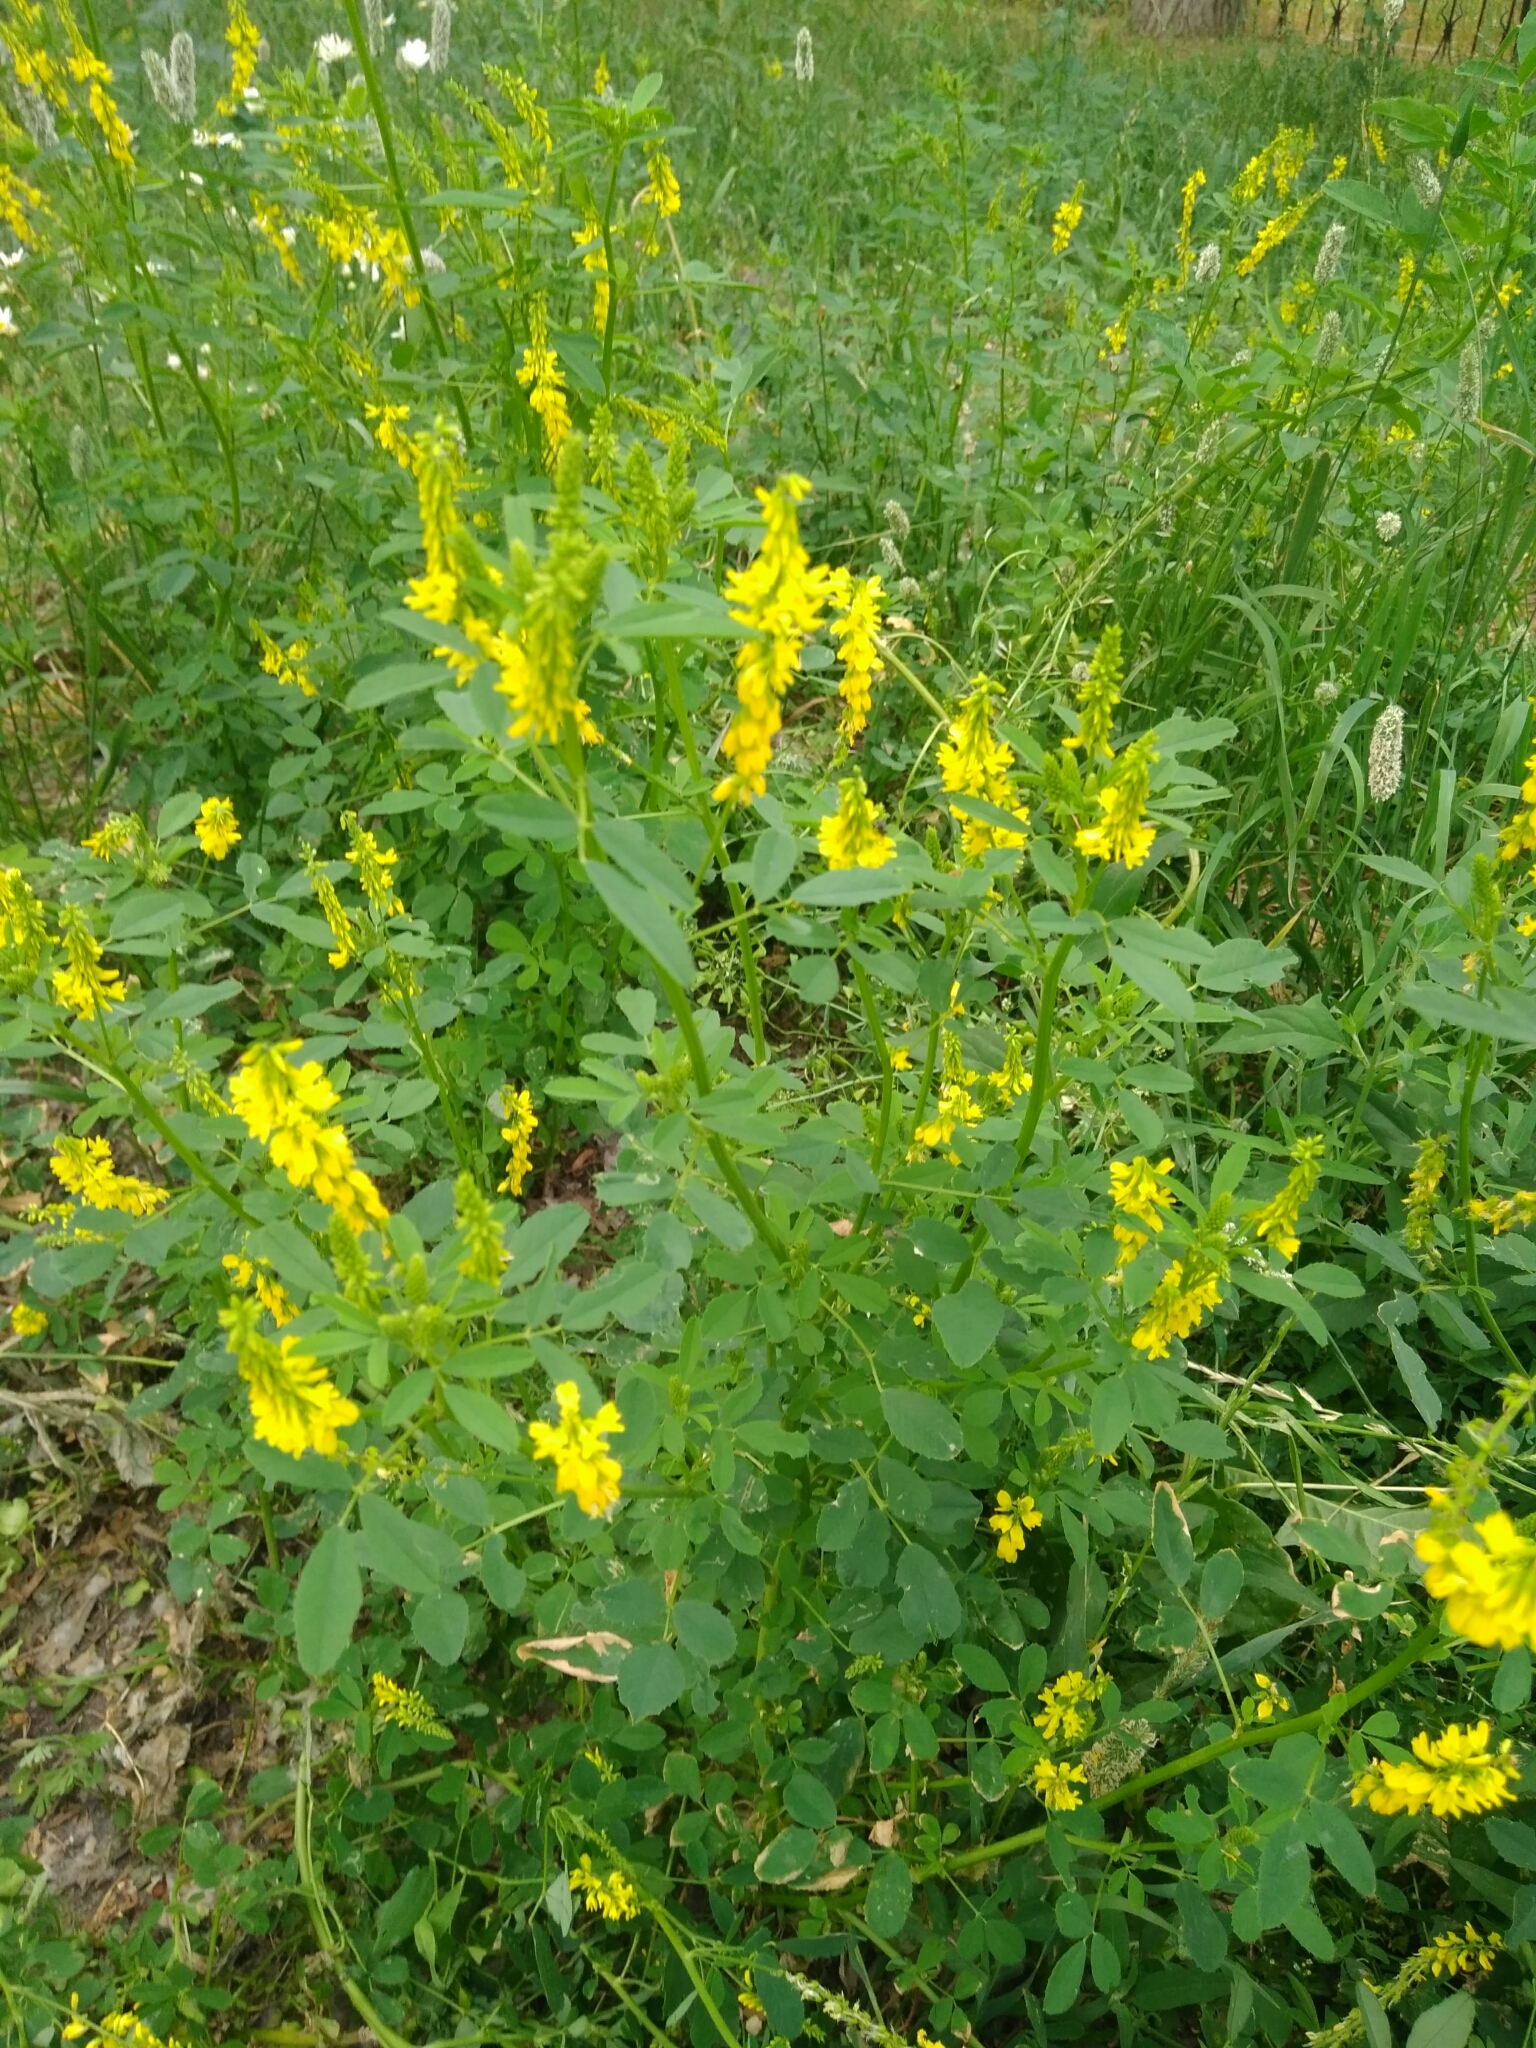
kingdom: Plantae
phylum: Tracheophyta
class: Magnoliopsida
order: Fabales
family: Fabaceae
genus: Melilotus
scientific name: Melilotus officinalis
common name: Sweetclover
